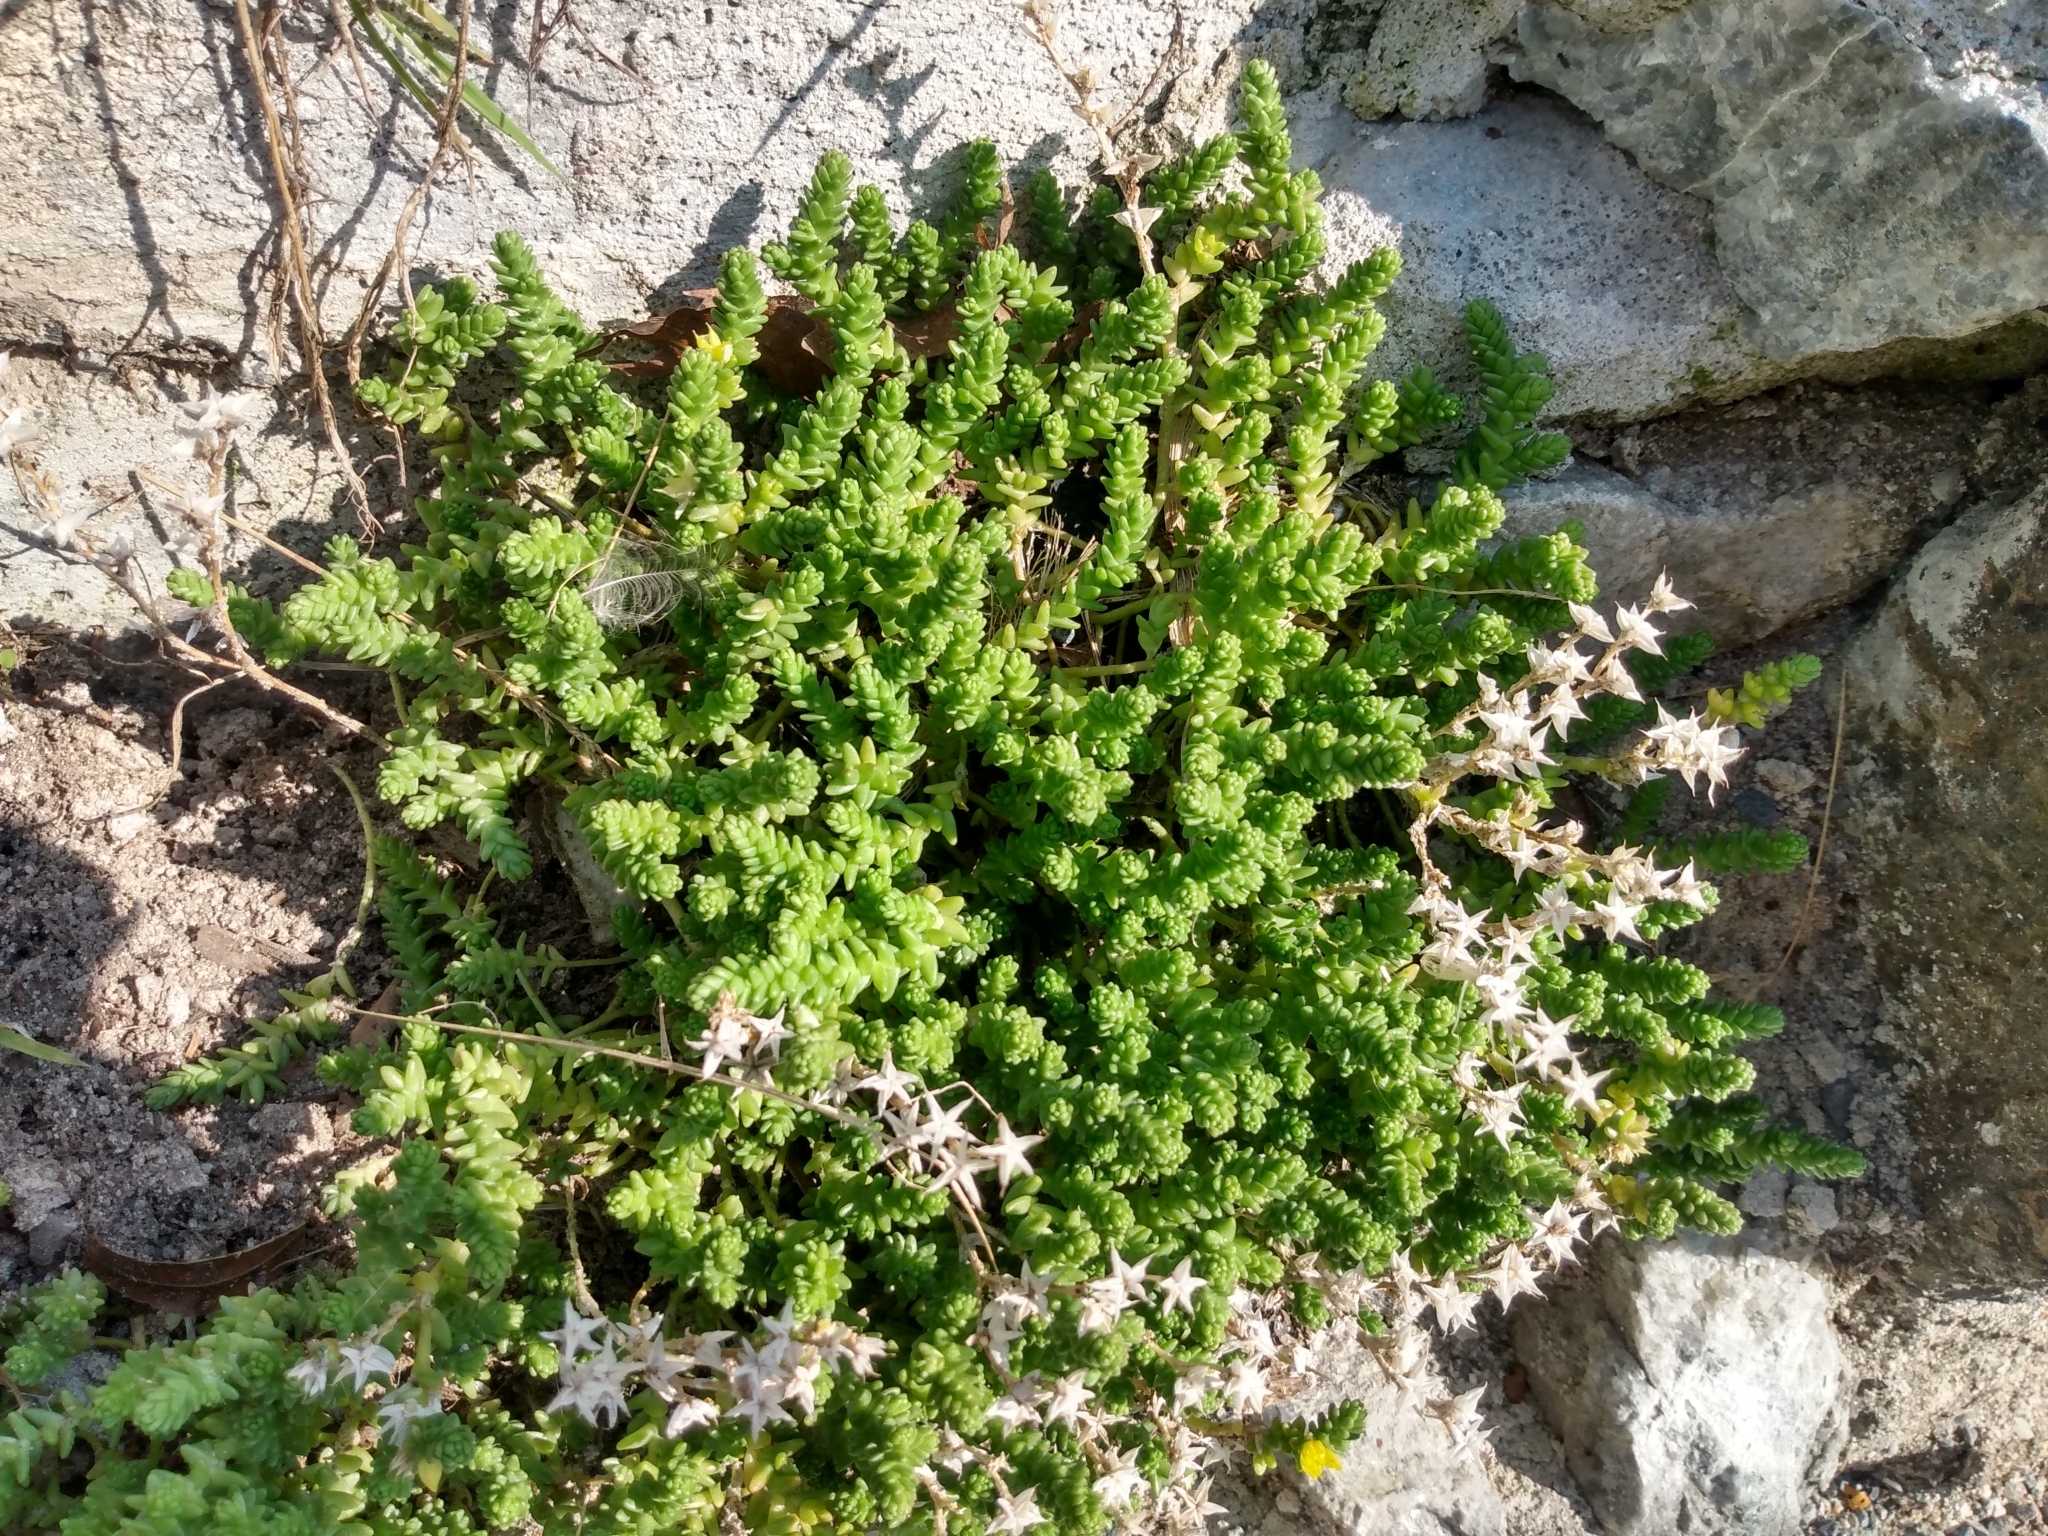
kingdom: Plantae
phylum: Tracheophyta
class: Magnoliopsida
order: Saxifragales
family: Crassulaceae
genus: Sedum
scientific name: Sedum acre
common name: Biting stonecrop
